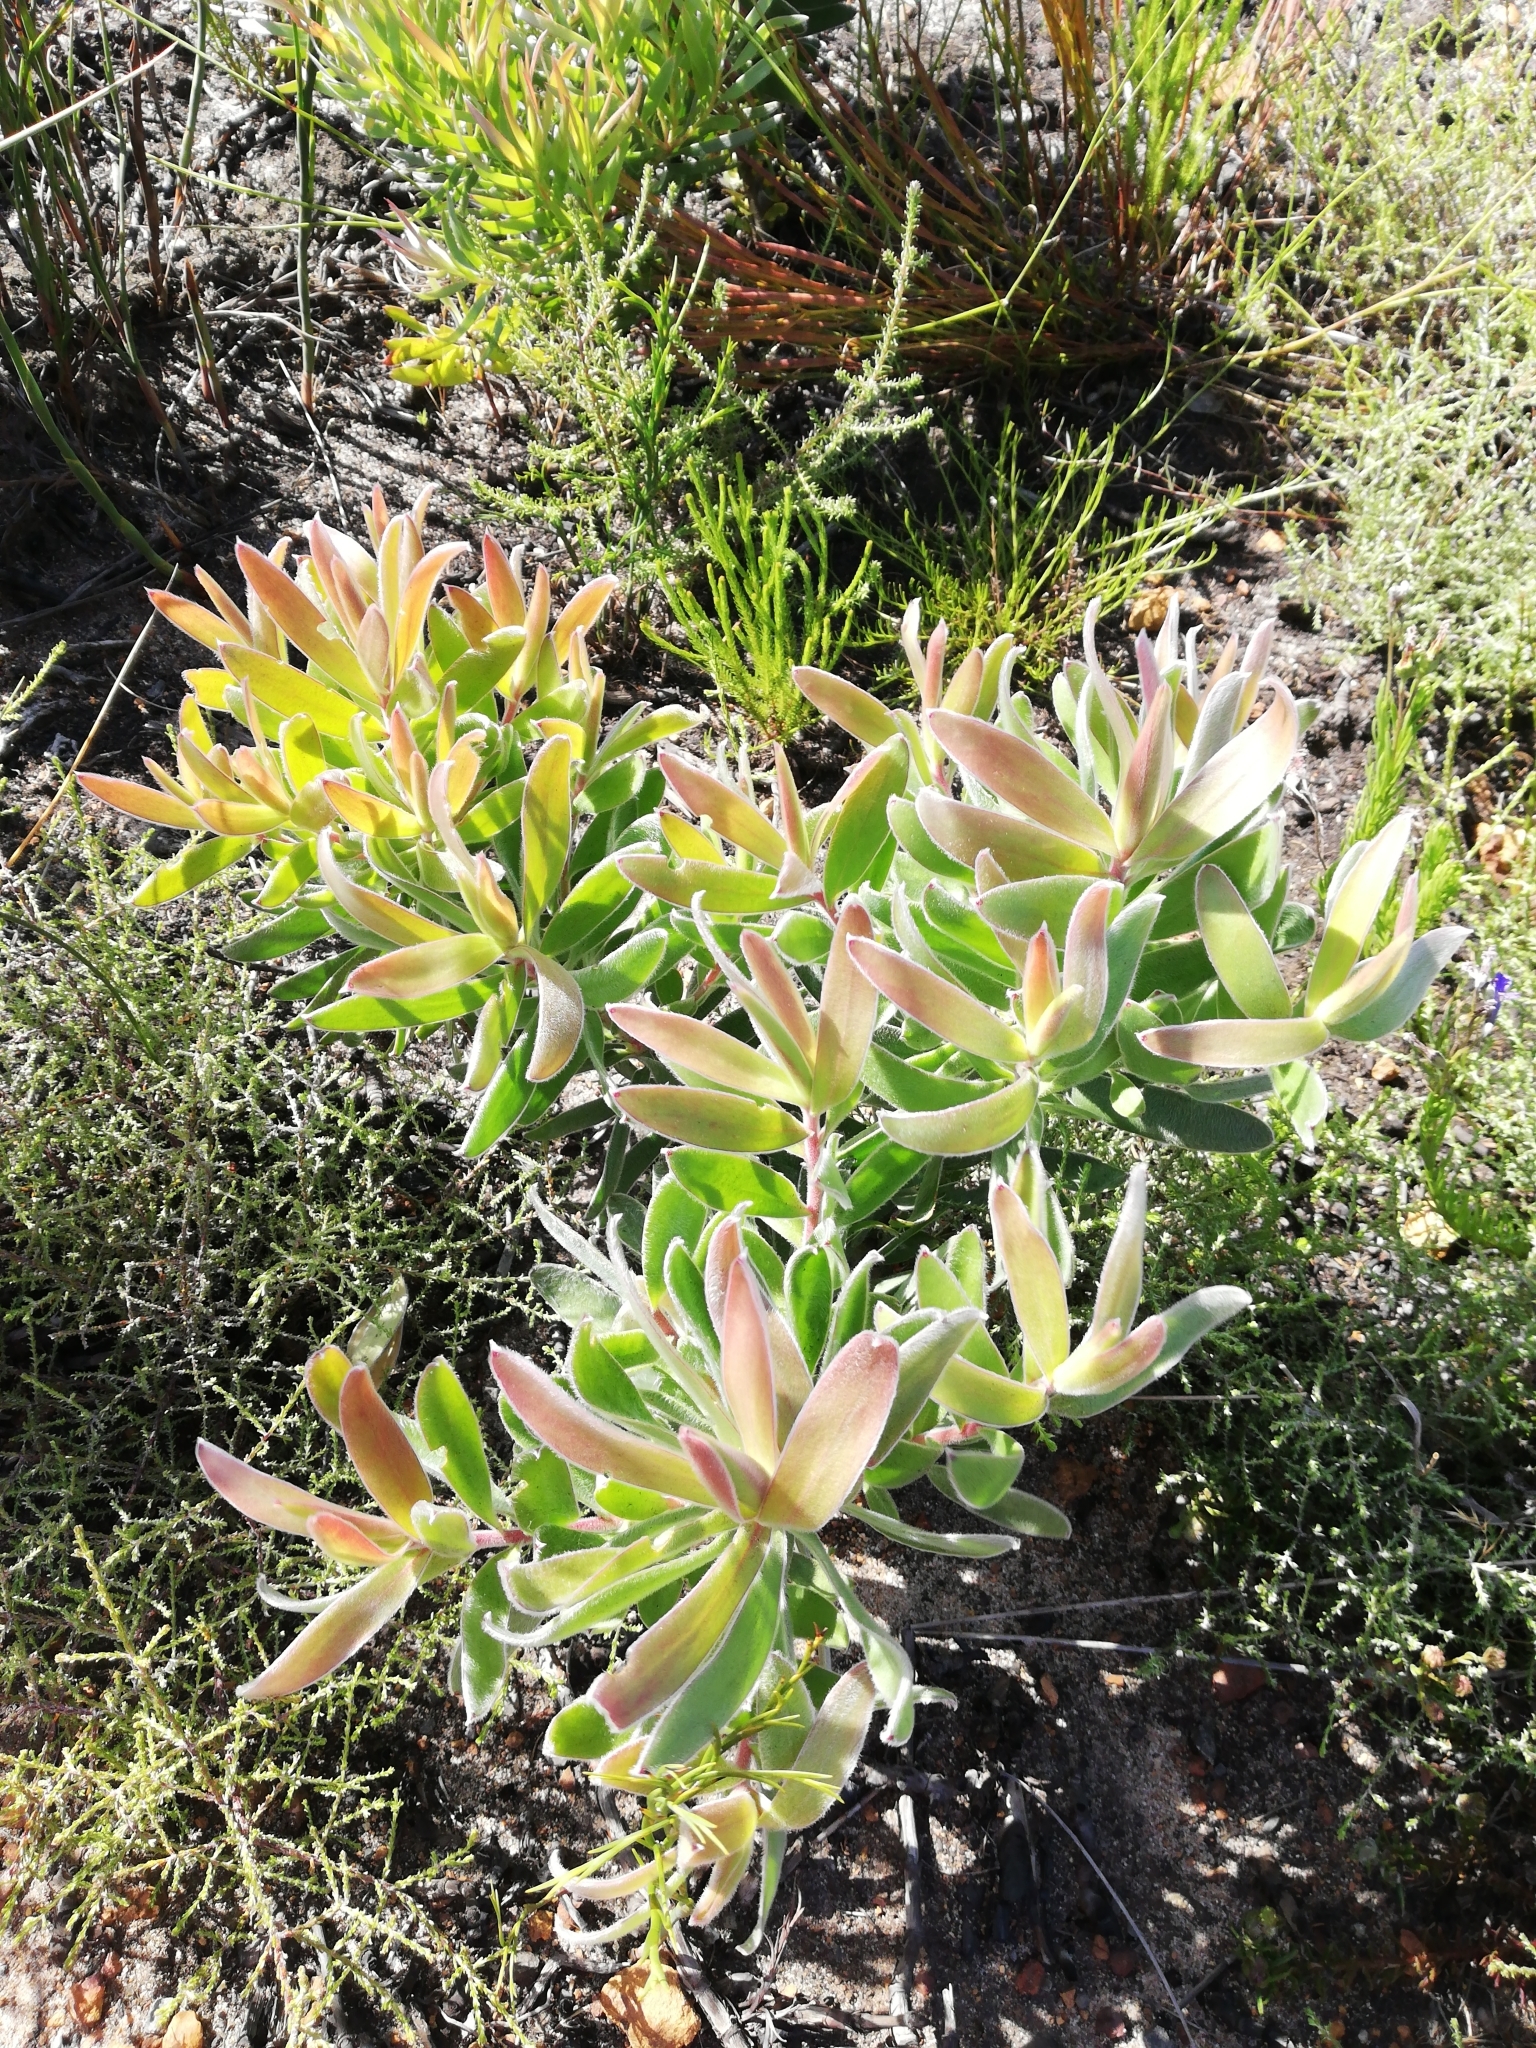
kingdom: Plantae
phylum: Tracheophyta
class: Magnoliopsida
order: Proteales
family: Proteaceae
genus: Leucadendron
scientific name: Leucadendron laureolum
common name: Golden sunshinebush
